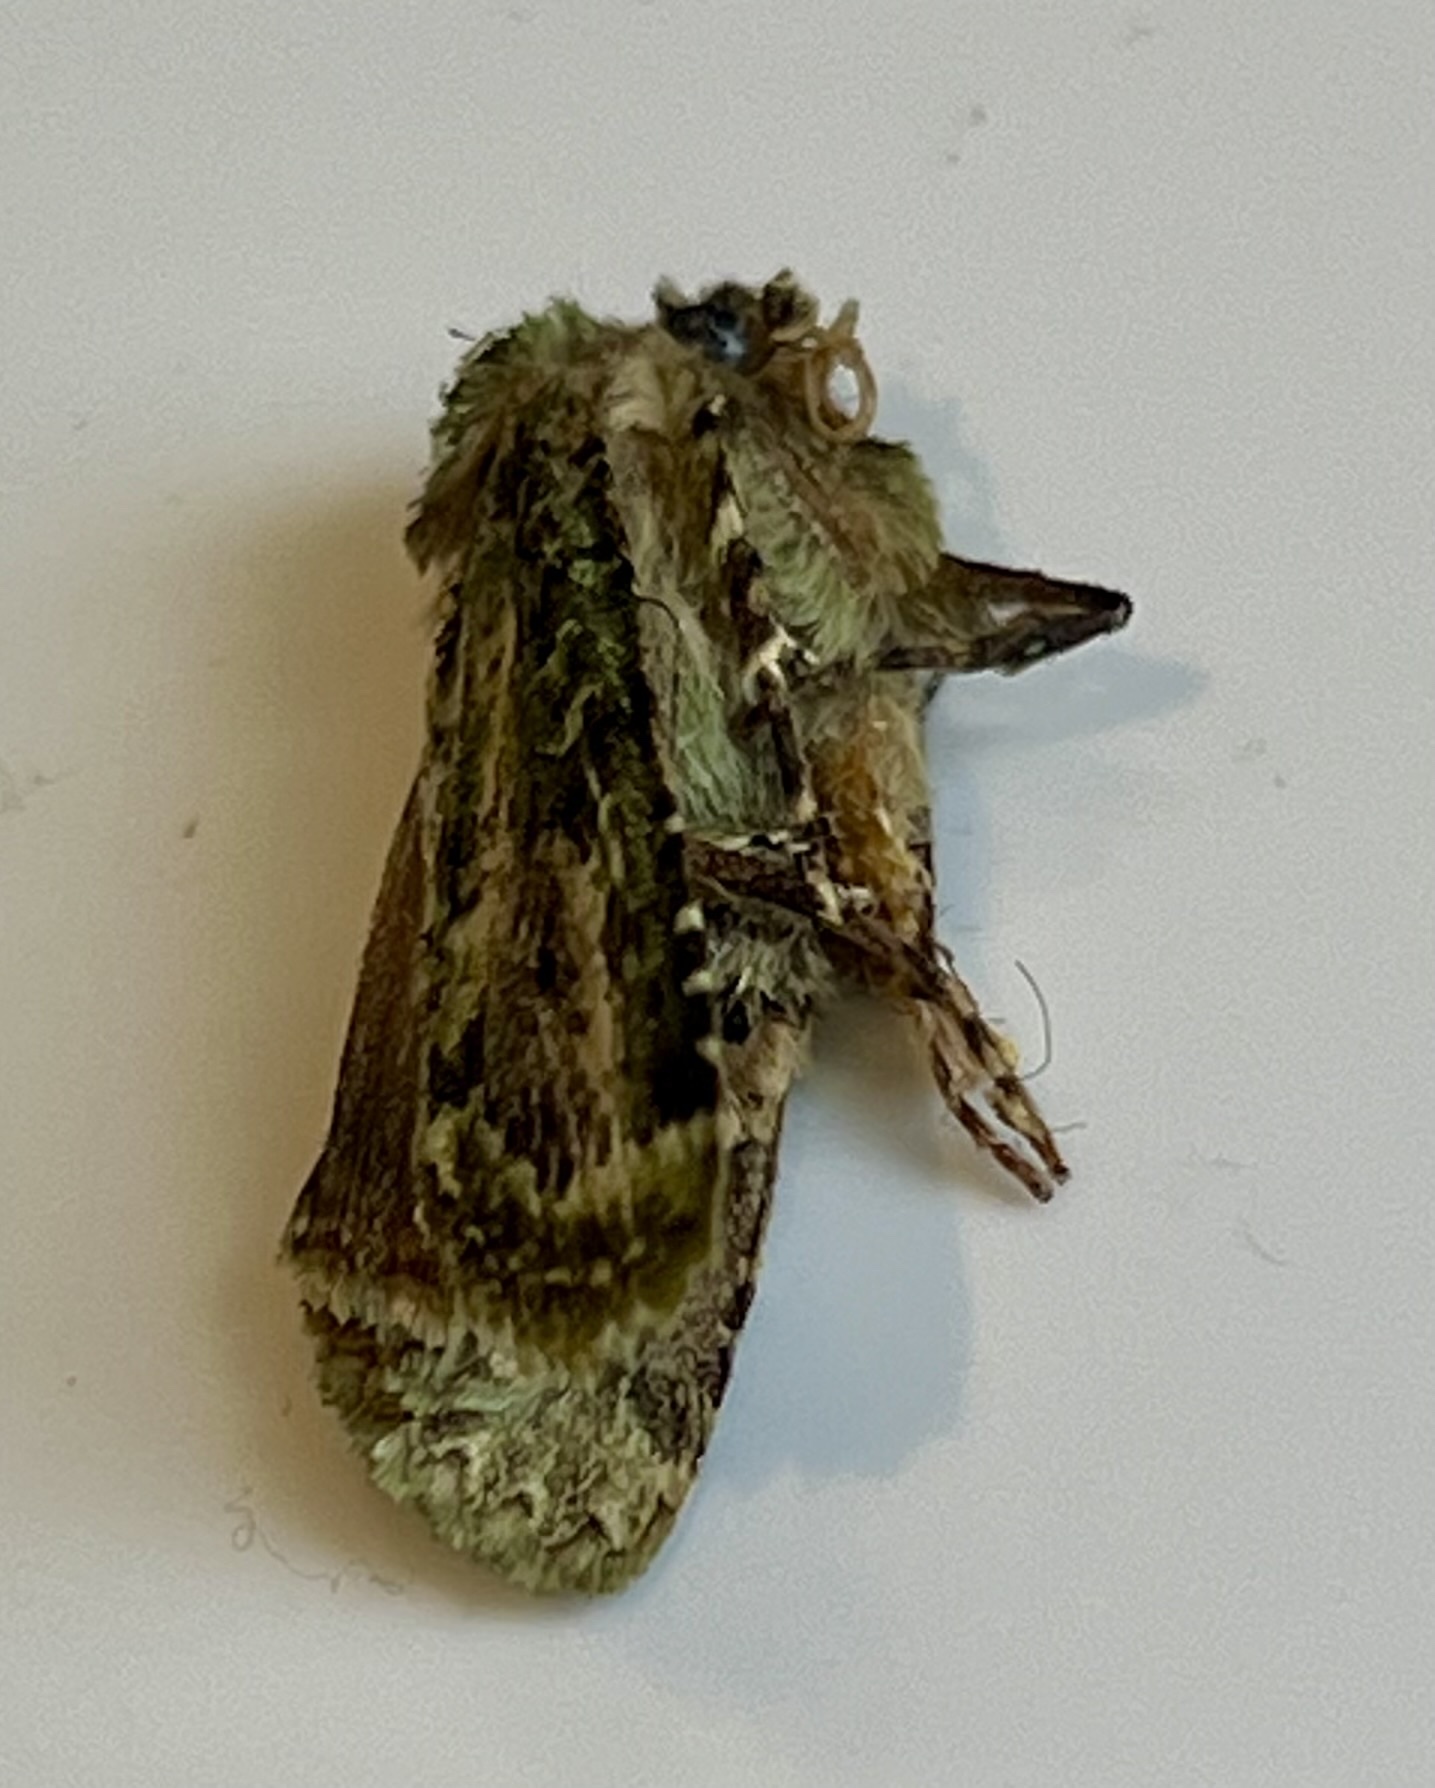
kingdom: Animalia
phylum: Arthropoda
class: Insecta
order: Lepidoptera
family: Noctuidae
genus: Feredayia
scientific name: Feredayia grammosa
